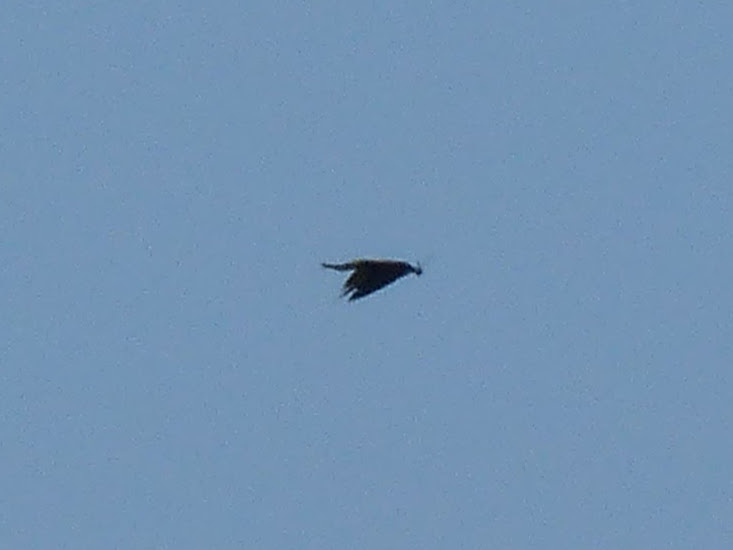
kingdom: Animalia
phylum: Chordata
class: Aves
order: Coraciiformes
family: Meropidae
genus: Merops
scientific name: Merops apiaster
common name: European bee-eater
